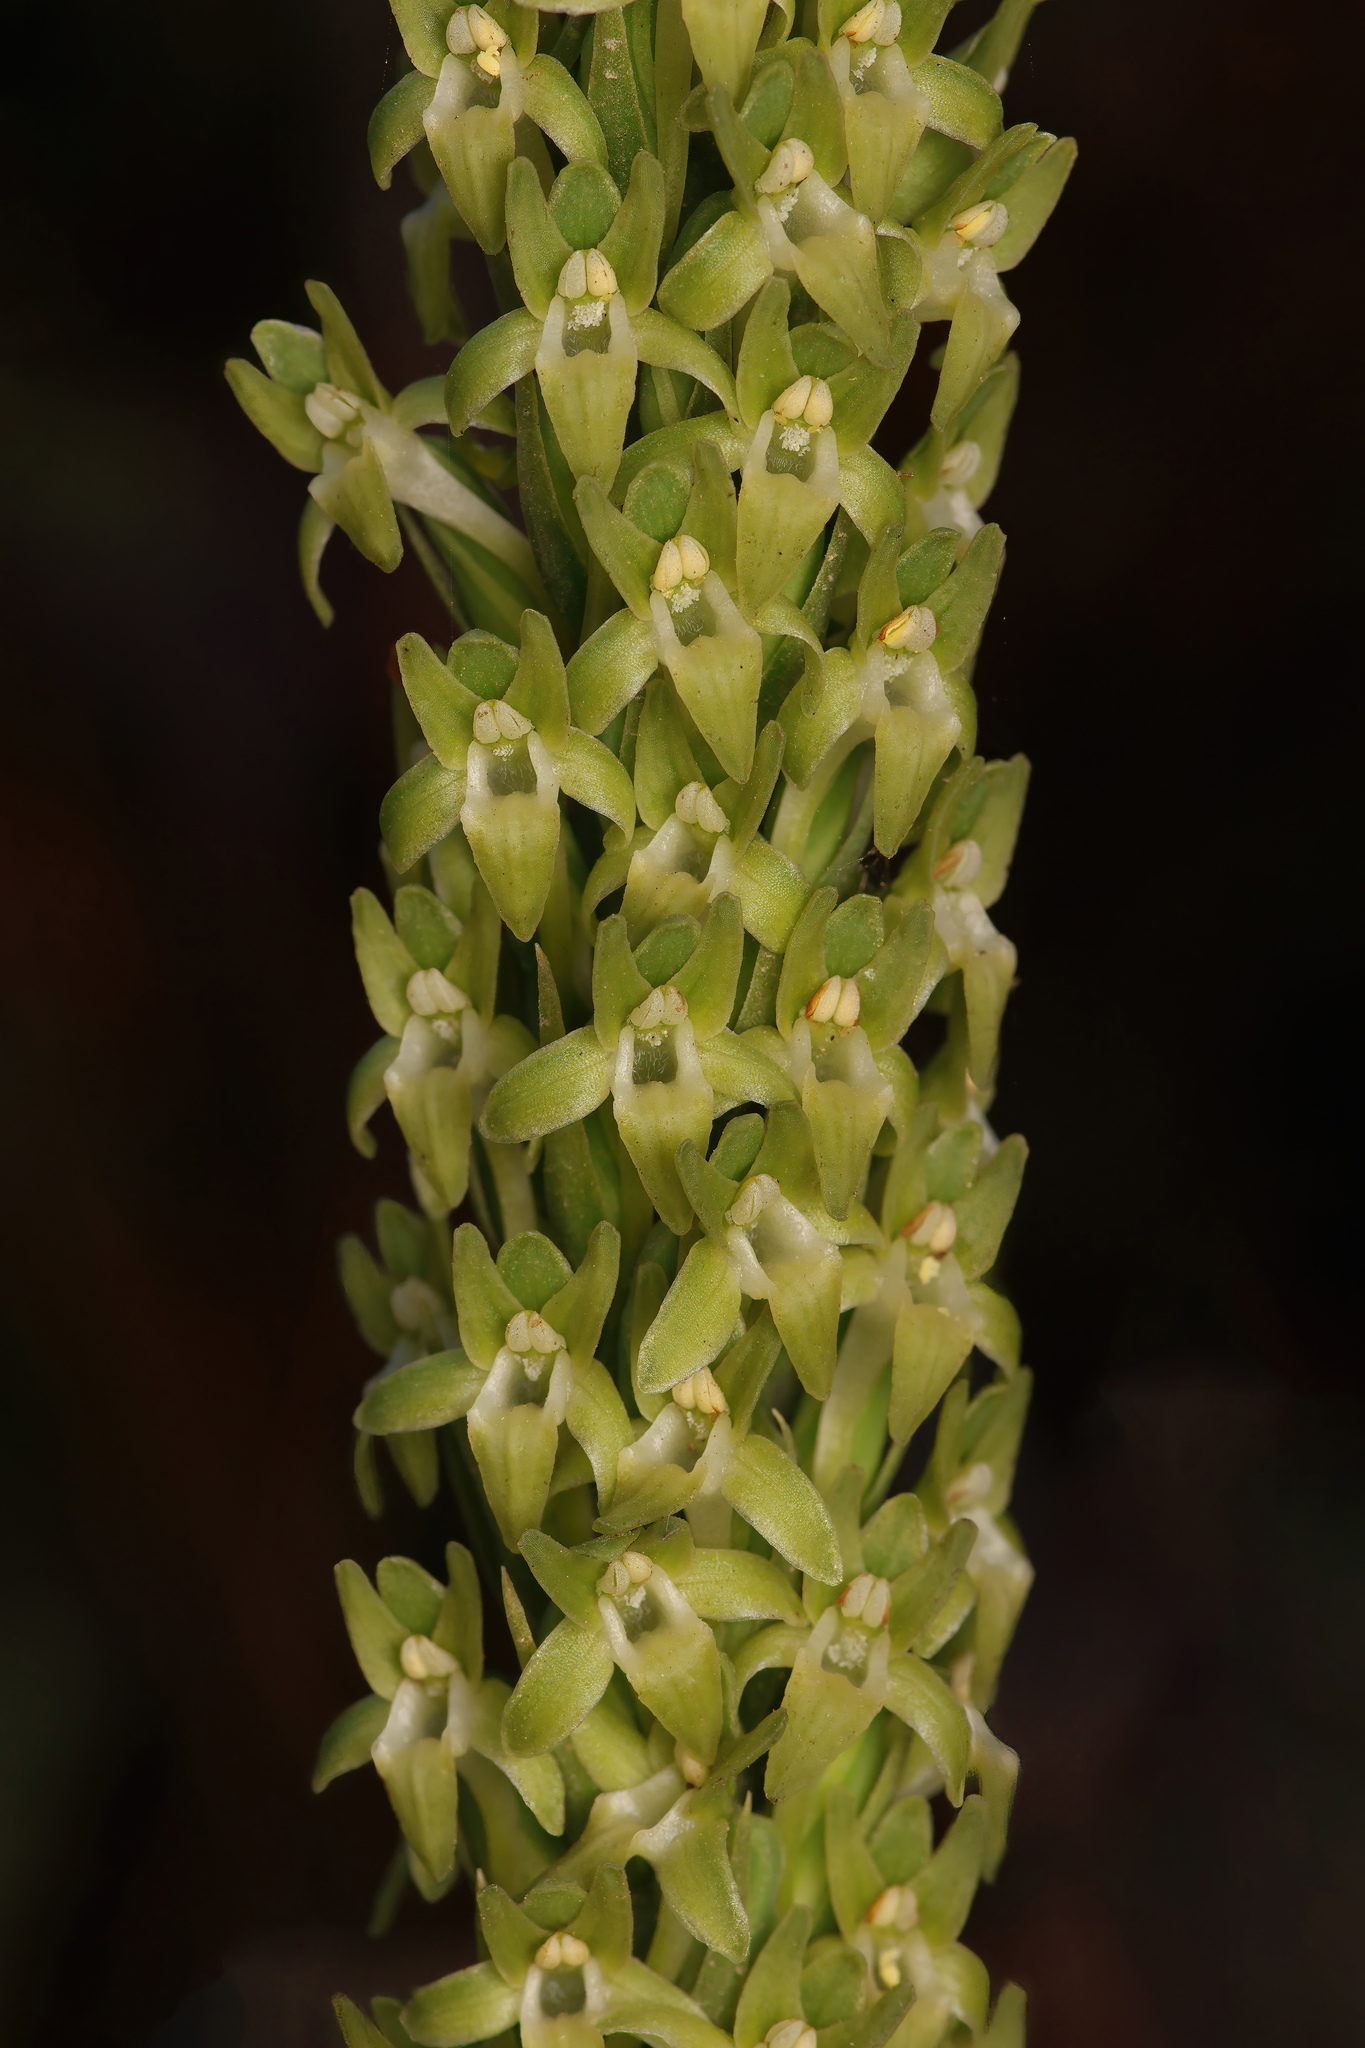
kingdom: Plantae
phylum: Tracheophyta
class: Liliopsida
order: Asparagales
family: Orchidaceae
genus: Platanthera
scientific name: Platanthera elongata
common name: Dense-flowered rein orchid
